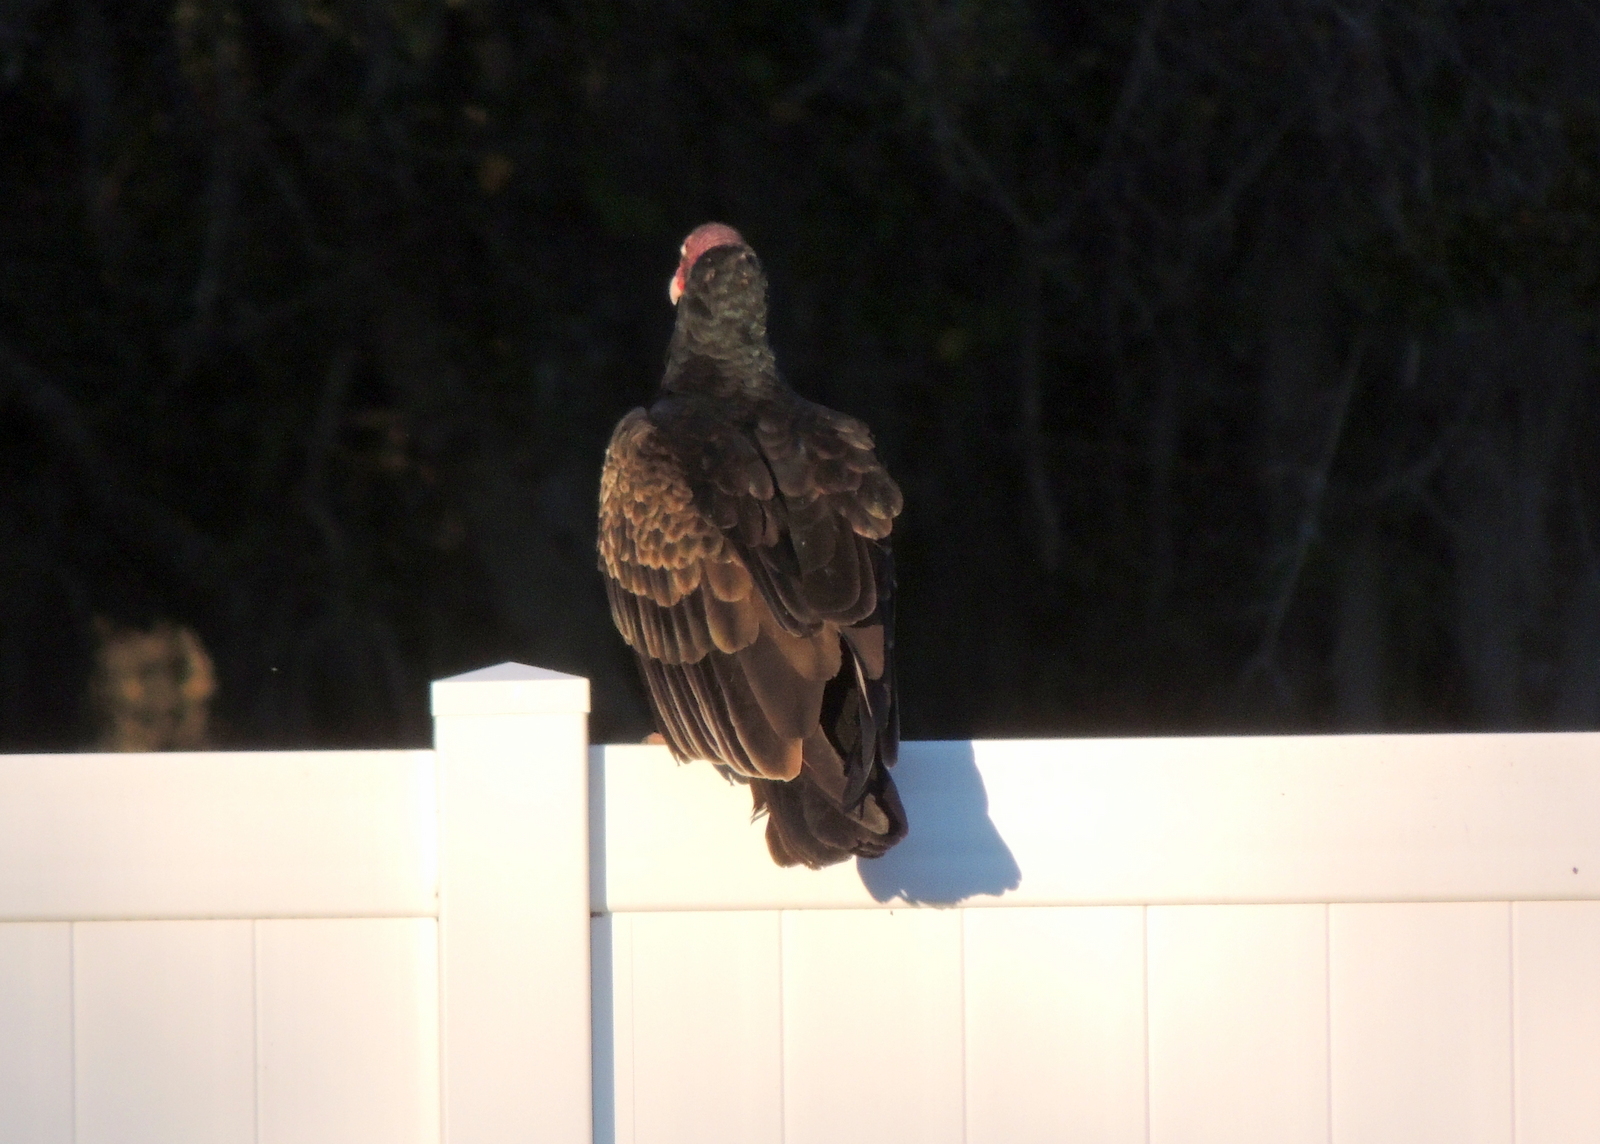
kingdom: Animalia
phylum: Chordata
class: Aves
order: Accipitriformes
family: Cathartidae
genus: Cathartes
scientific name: Cathartes aura
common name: Turkey vulture
